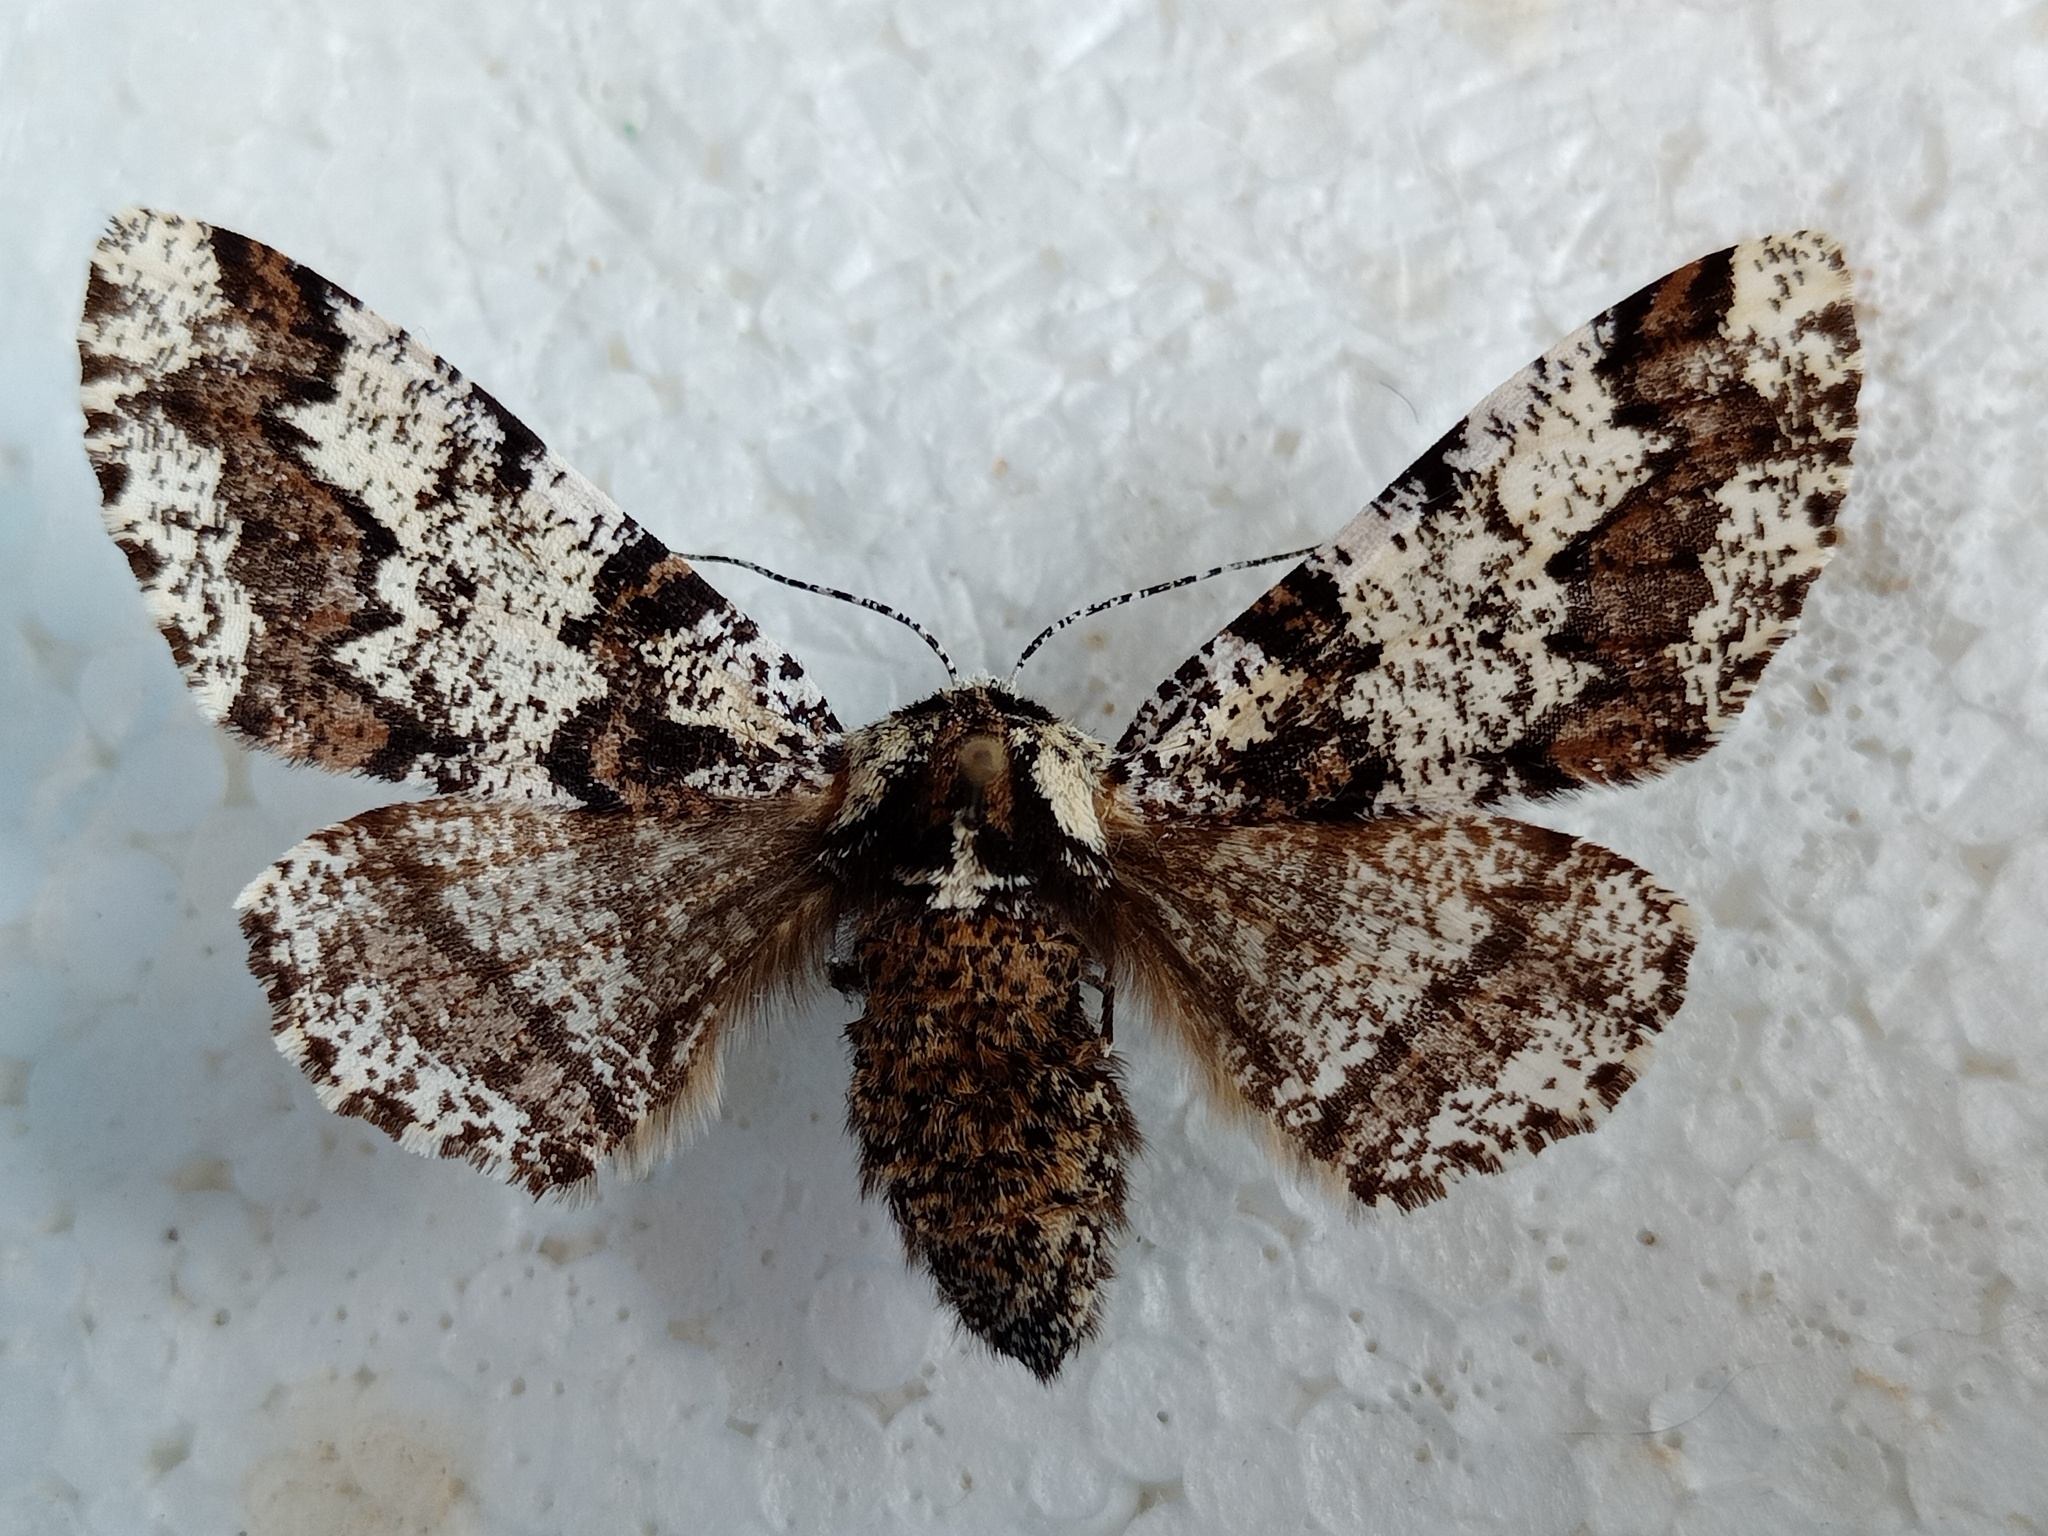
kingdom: Animalia
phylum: Arthropoda
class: Insecta
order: Lepidoptera
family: Geometridae
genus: Biston
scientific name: Biston strataria
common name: Oak beauty
